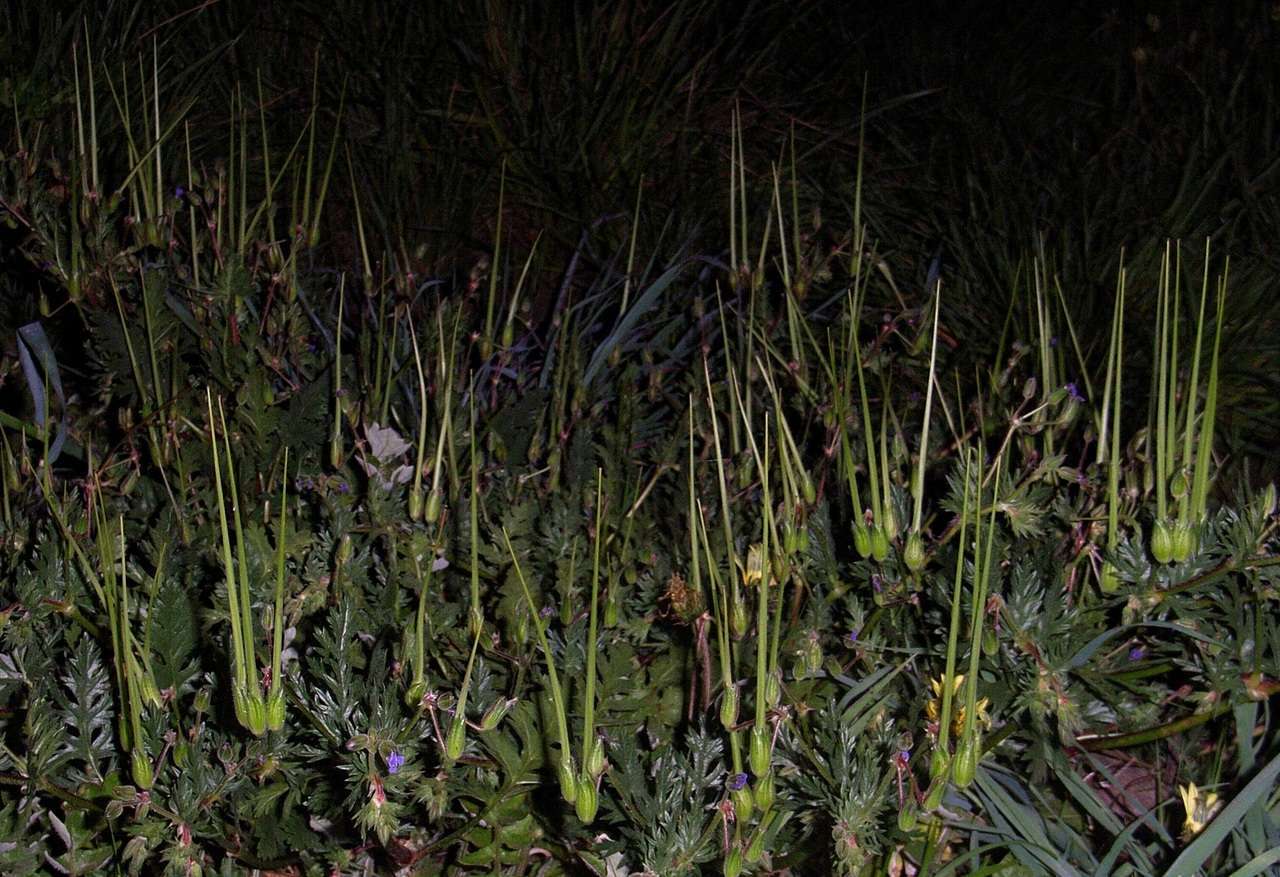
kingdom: Plantae
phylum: Tracheophyta
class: Magnoliopsida
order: Geraniales
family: Geraniaceae
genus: Erodium
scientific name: Erodium botrys
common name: Mediterranean stork's-bill
